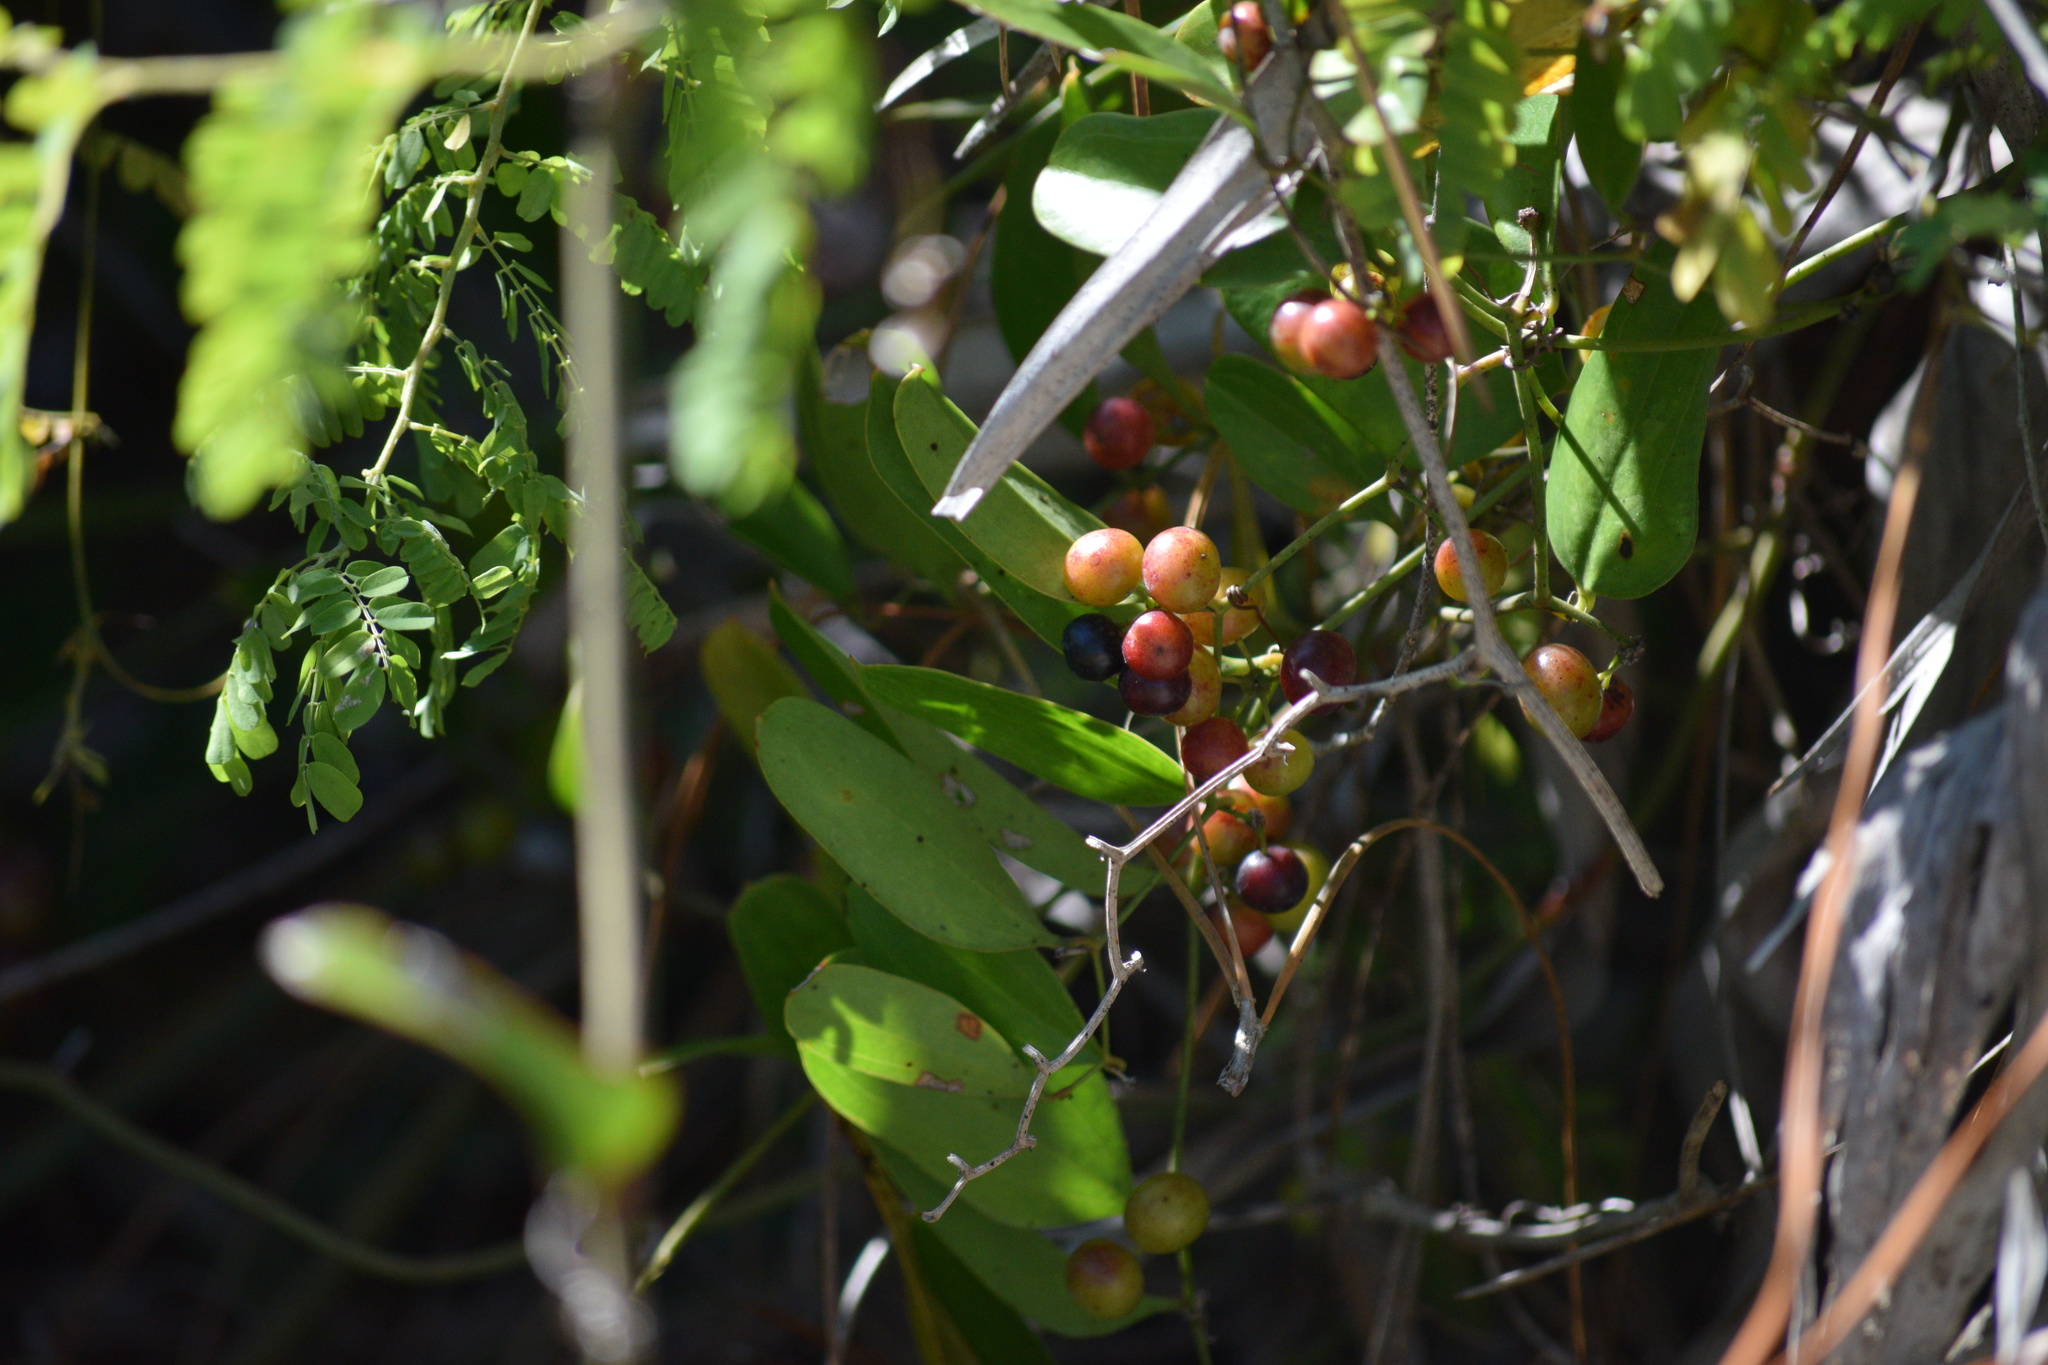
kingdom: Plantae
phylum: Tracheophyta
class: Liliopsida
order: Liliales
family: Smilacaceae
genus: Smilax
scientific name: Smilax auriculata
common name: Wild bamboo
